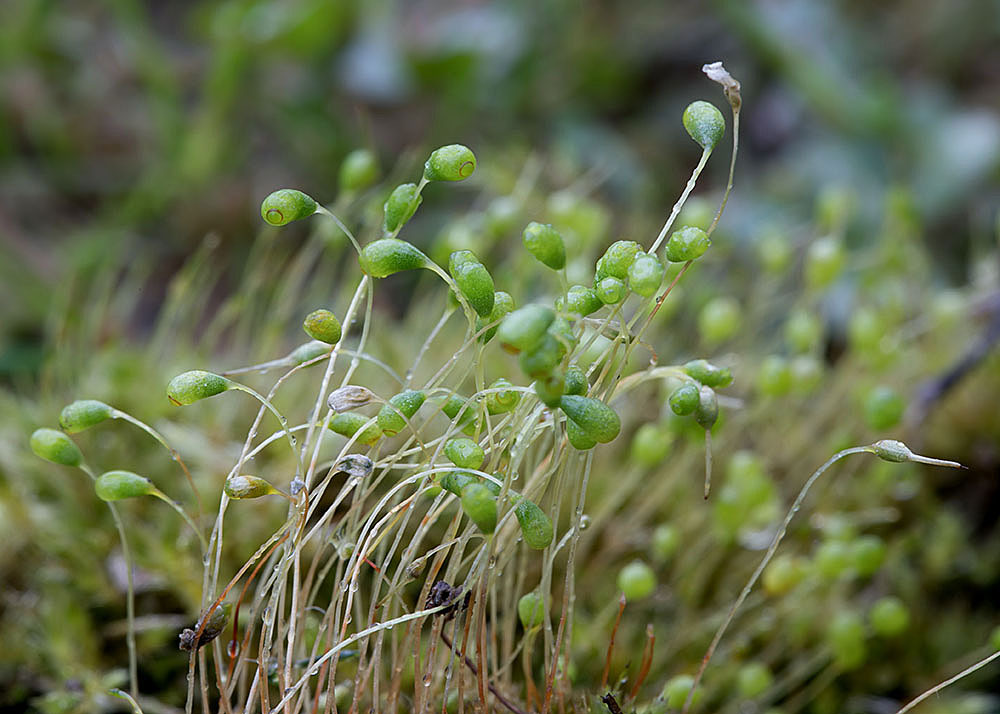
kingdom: Plantae
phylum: Bryophyta
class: Bryopsida
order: Funariales
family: Funariaceae
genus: Funaria
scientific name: Funaria hygrometrica
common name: Common cord moss
